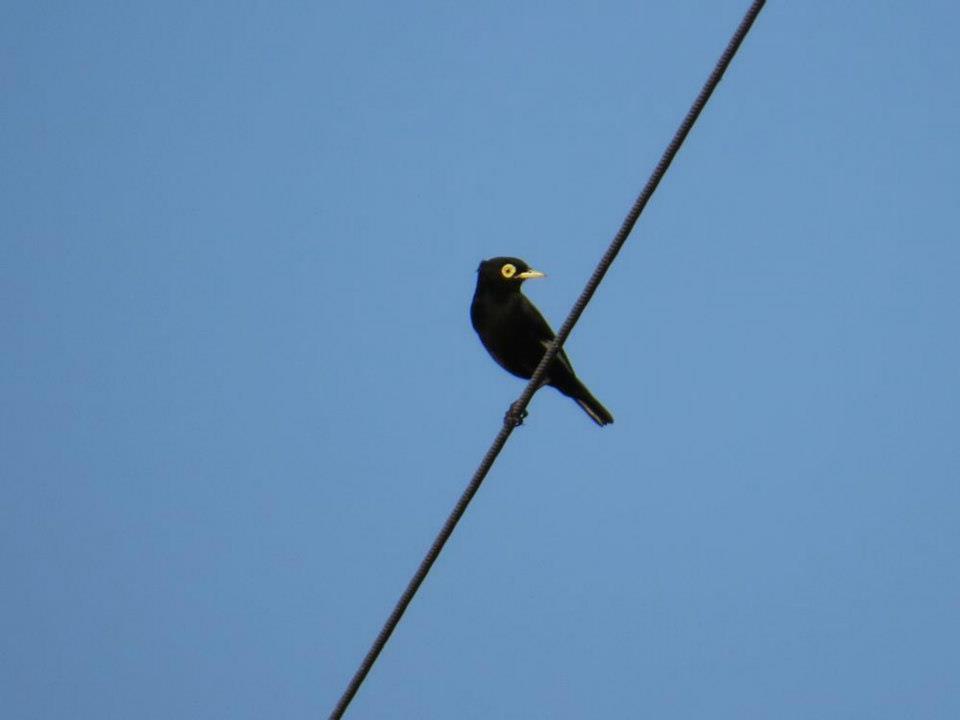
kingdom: Animalia
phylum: Chordata
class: Aves
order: Passeriformes
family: Tyrannidae
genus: Hymenops
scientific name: Hymenops perspicillatus
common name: Spectacled tyrant
